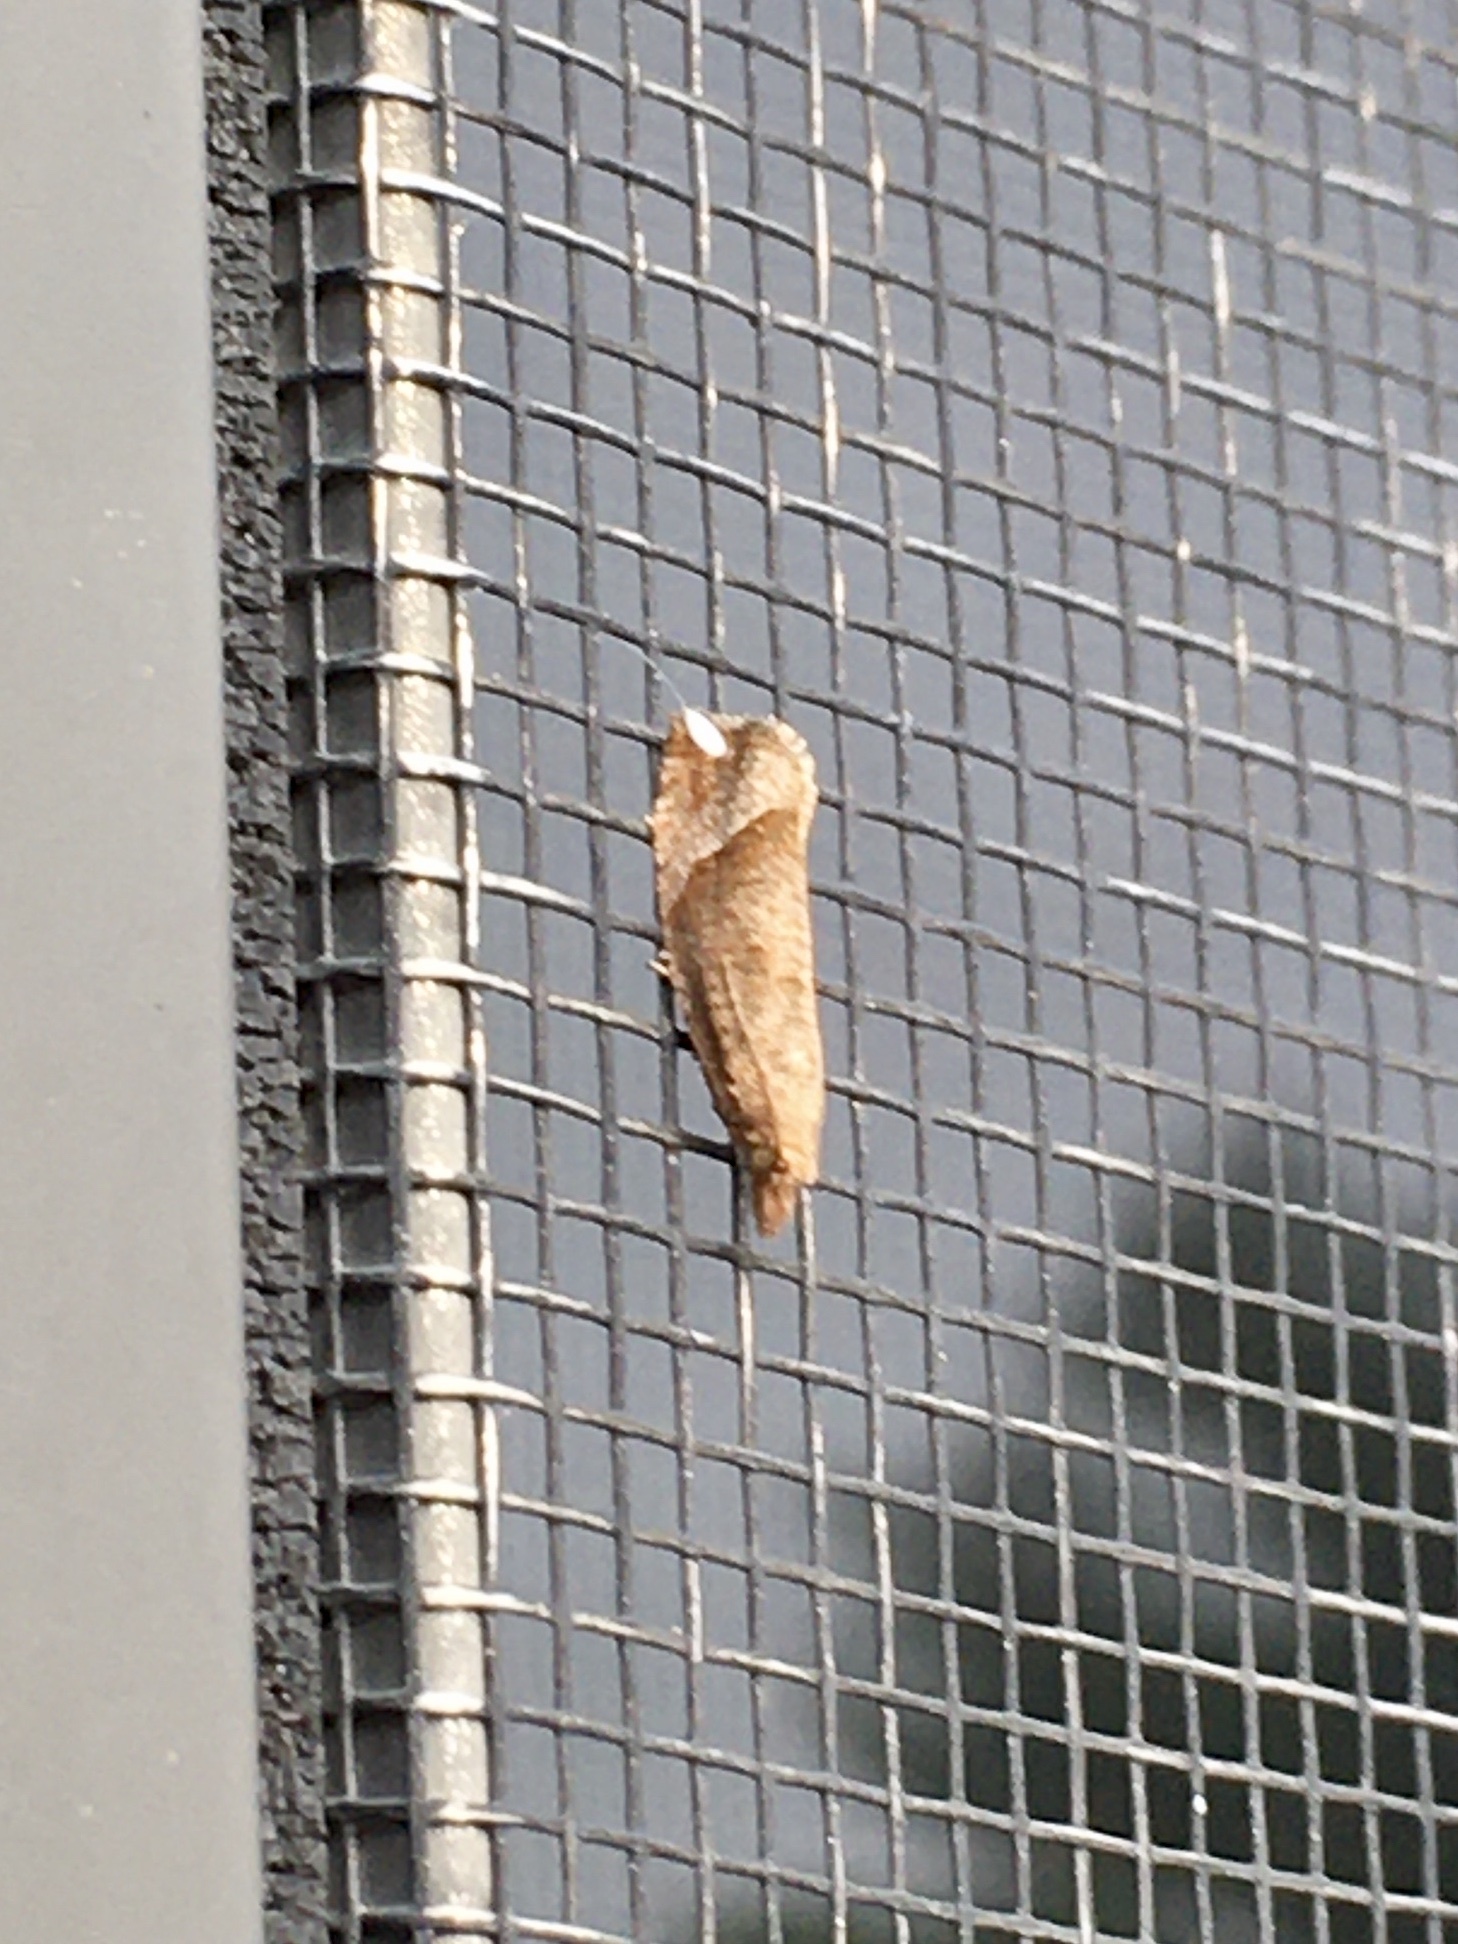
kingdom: Animalia
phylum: Arthropoda
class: Insecta
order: Lepidoptera
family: Tortricidae
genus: Pelochrista
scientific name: Pelochrista derelicta
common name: Derelict pelochrista moth
